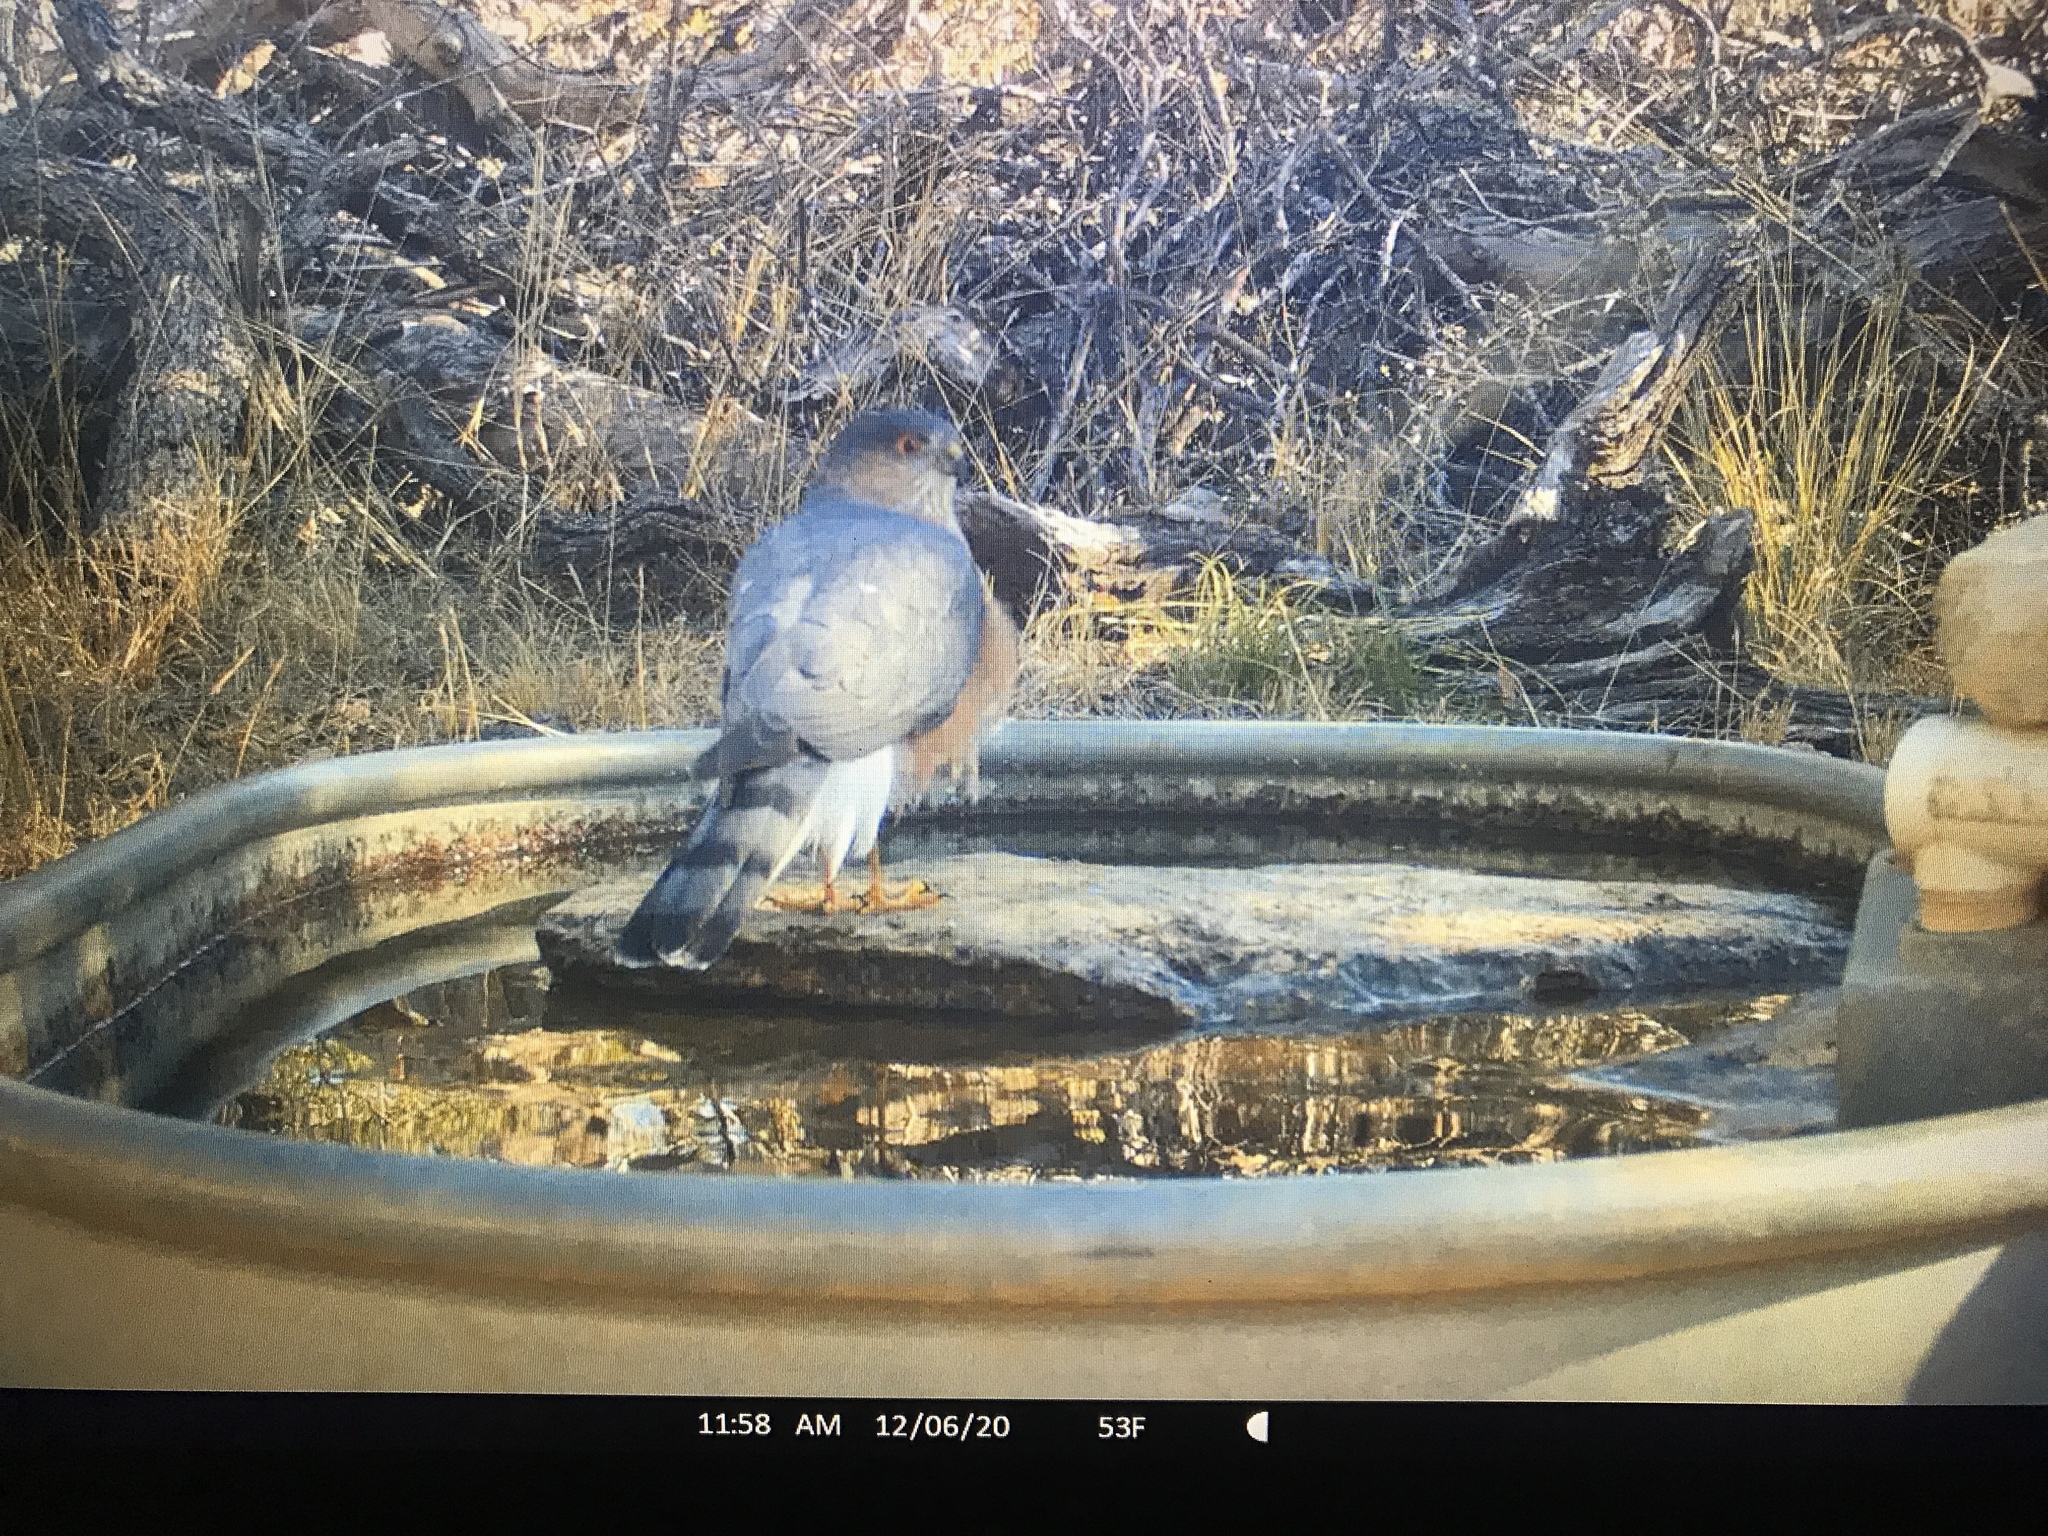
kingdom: Animalia
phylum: Chordata
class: Aves
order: Accipitriformes
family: Accipitridae
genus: Accipiter
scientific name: Accipiter cooperii
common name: Cooper's hawk
